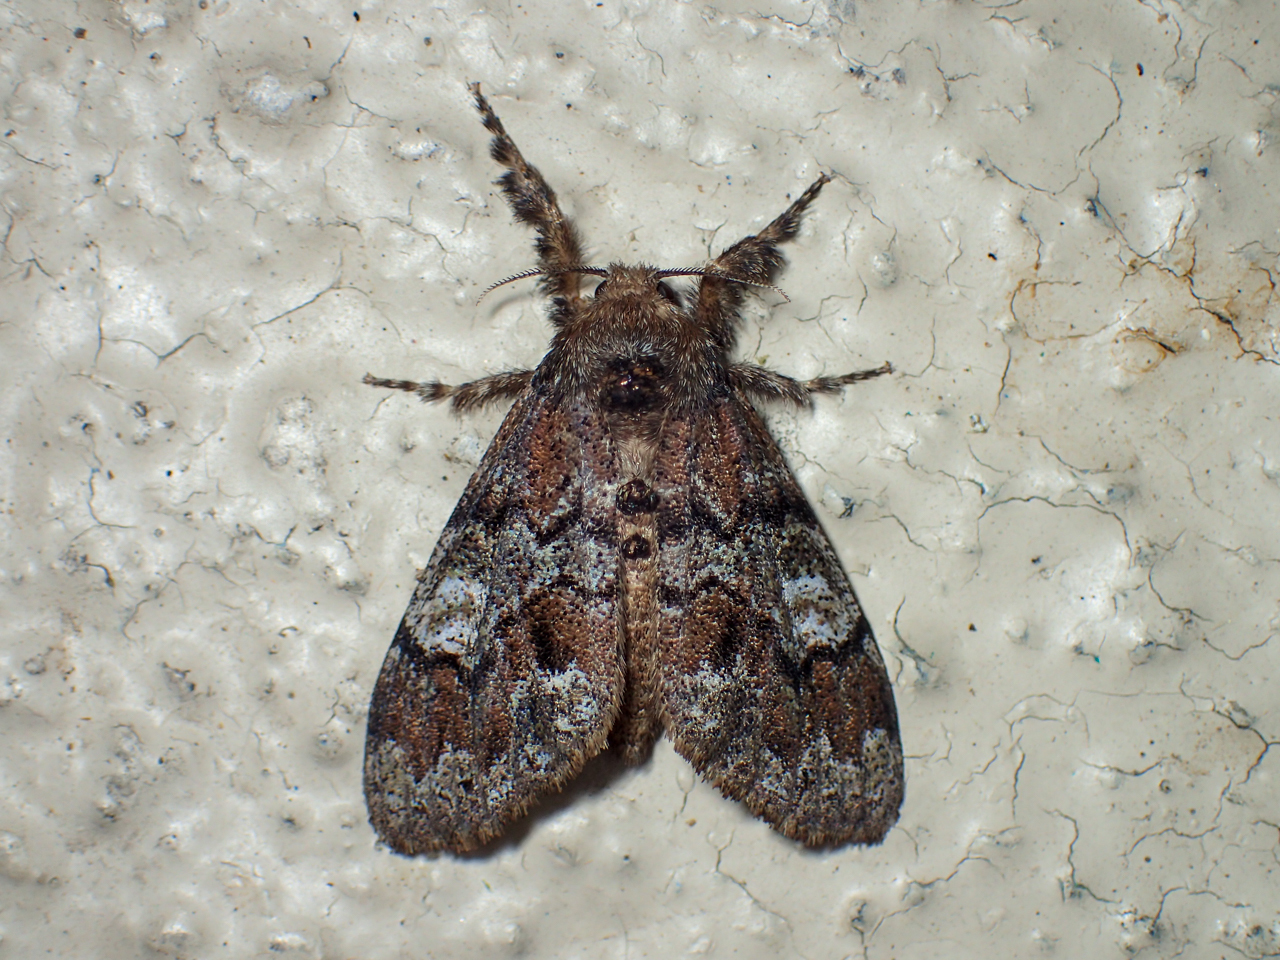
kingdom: Animalia
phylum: Arthropoda
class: Insecta
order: Lepidoptera
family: Erebidae
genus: Dasychira
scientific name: Dasychira manto
